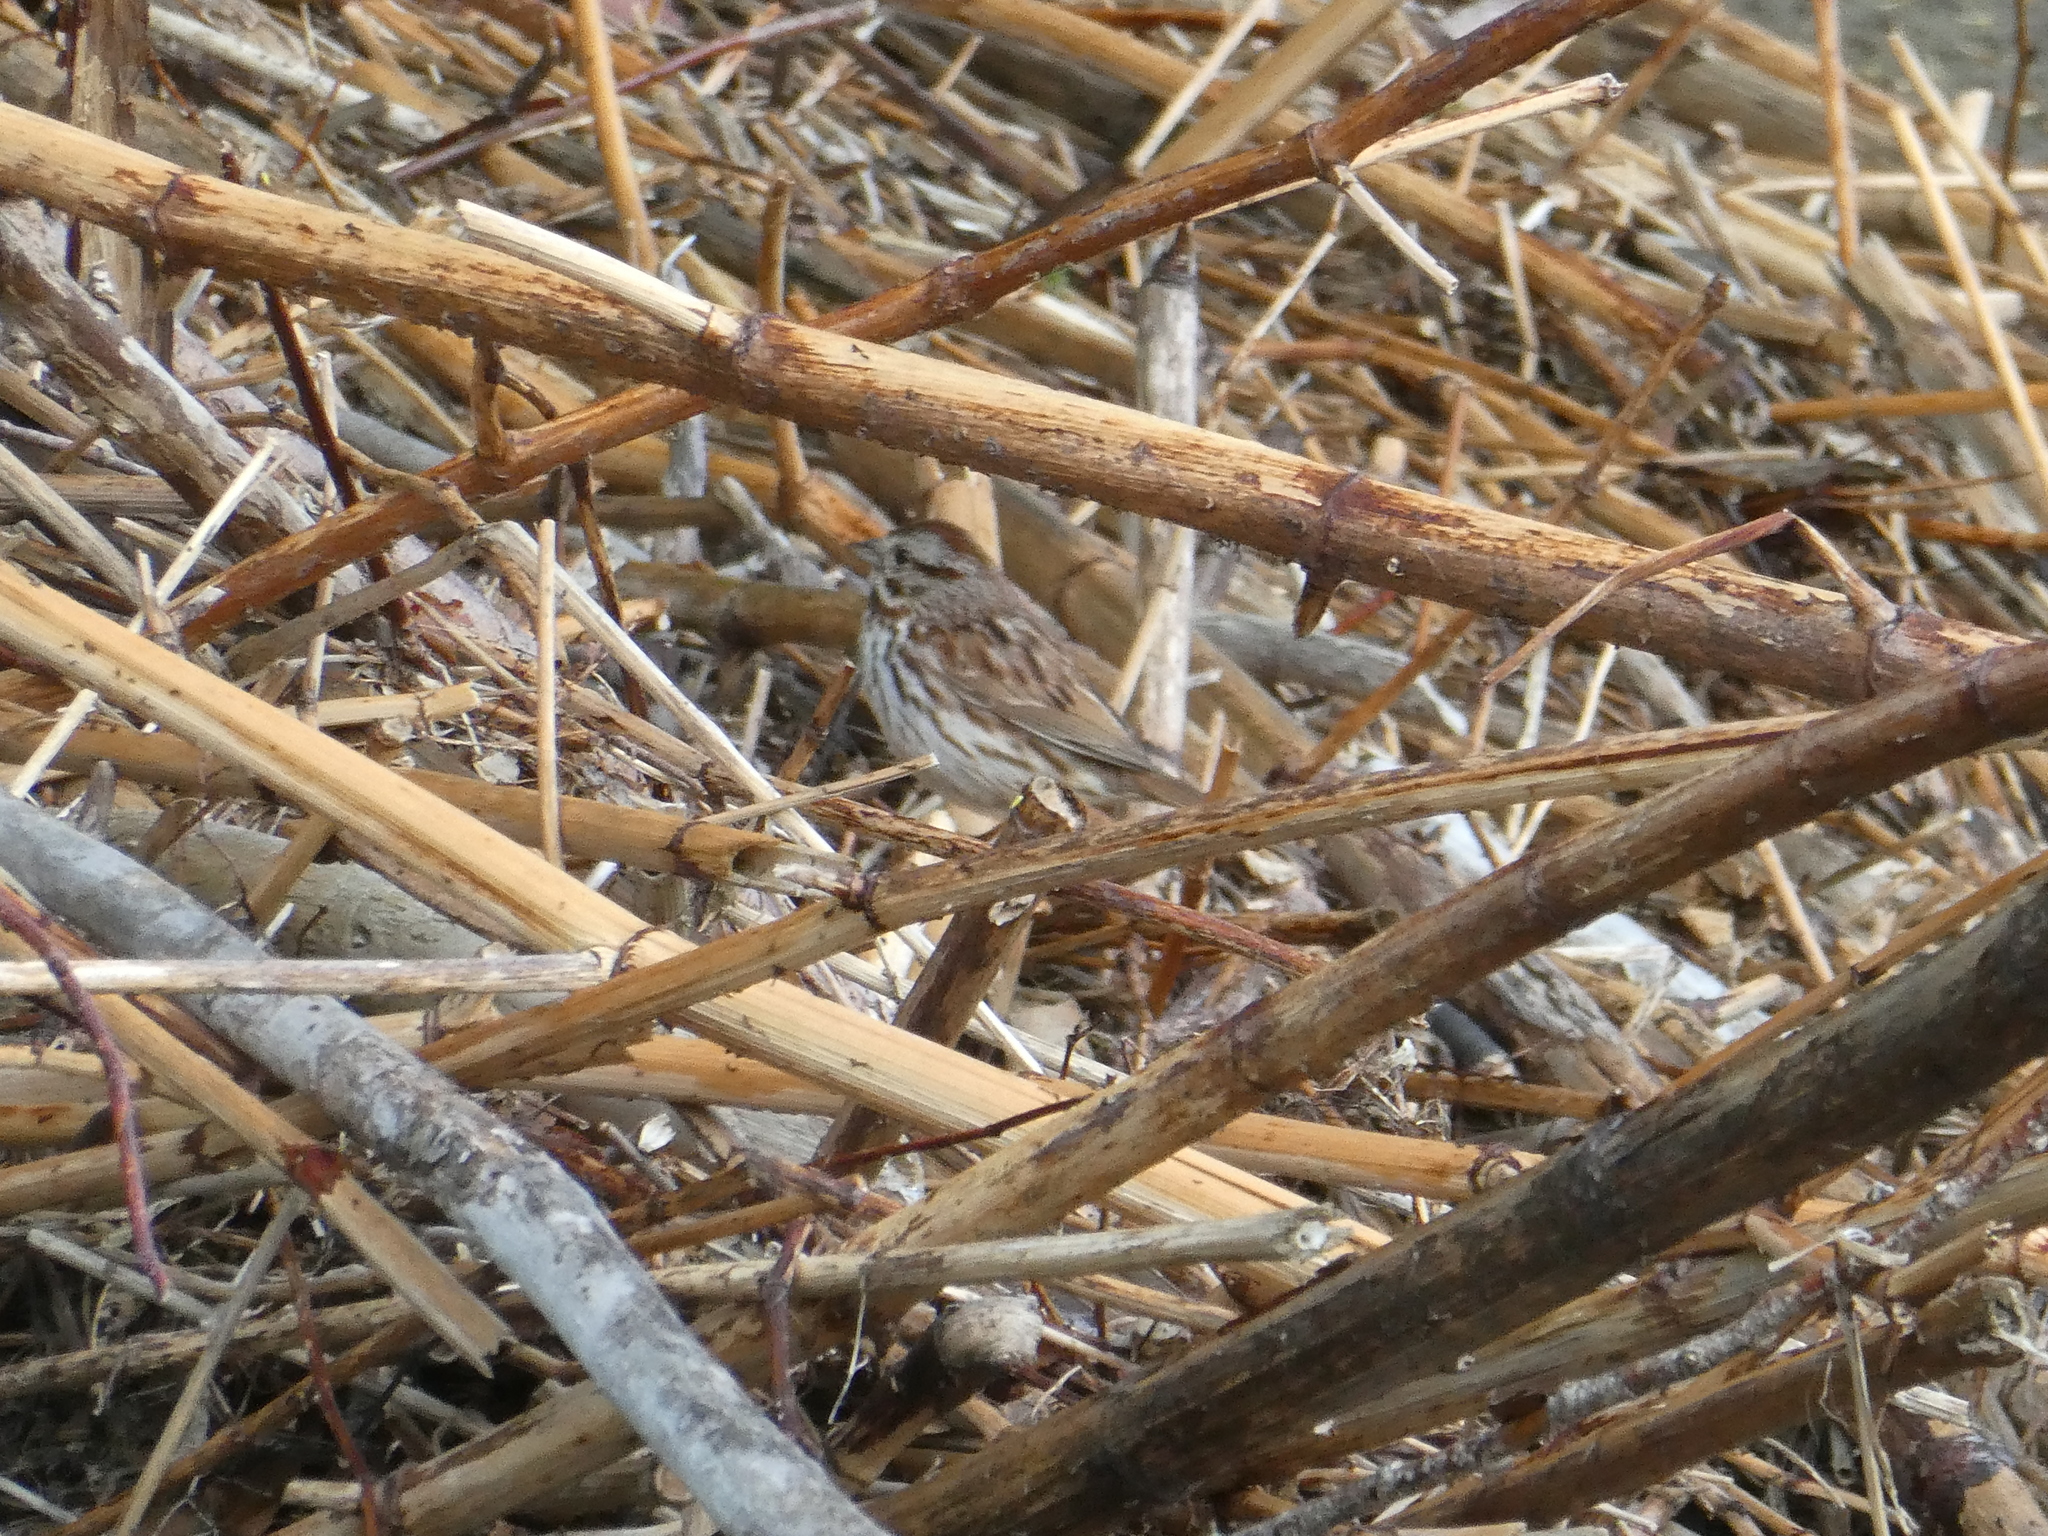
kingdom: Animalia
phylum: Chordata
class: Aves
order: Passeriformes
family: Passerellidae
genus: Melospiza
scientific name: Melospiza melodia
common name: Song sparrow
